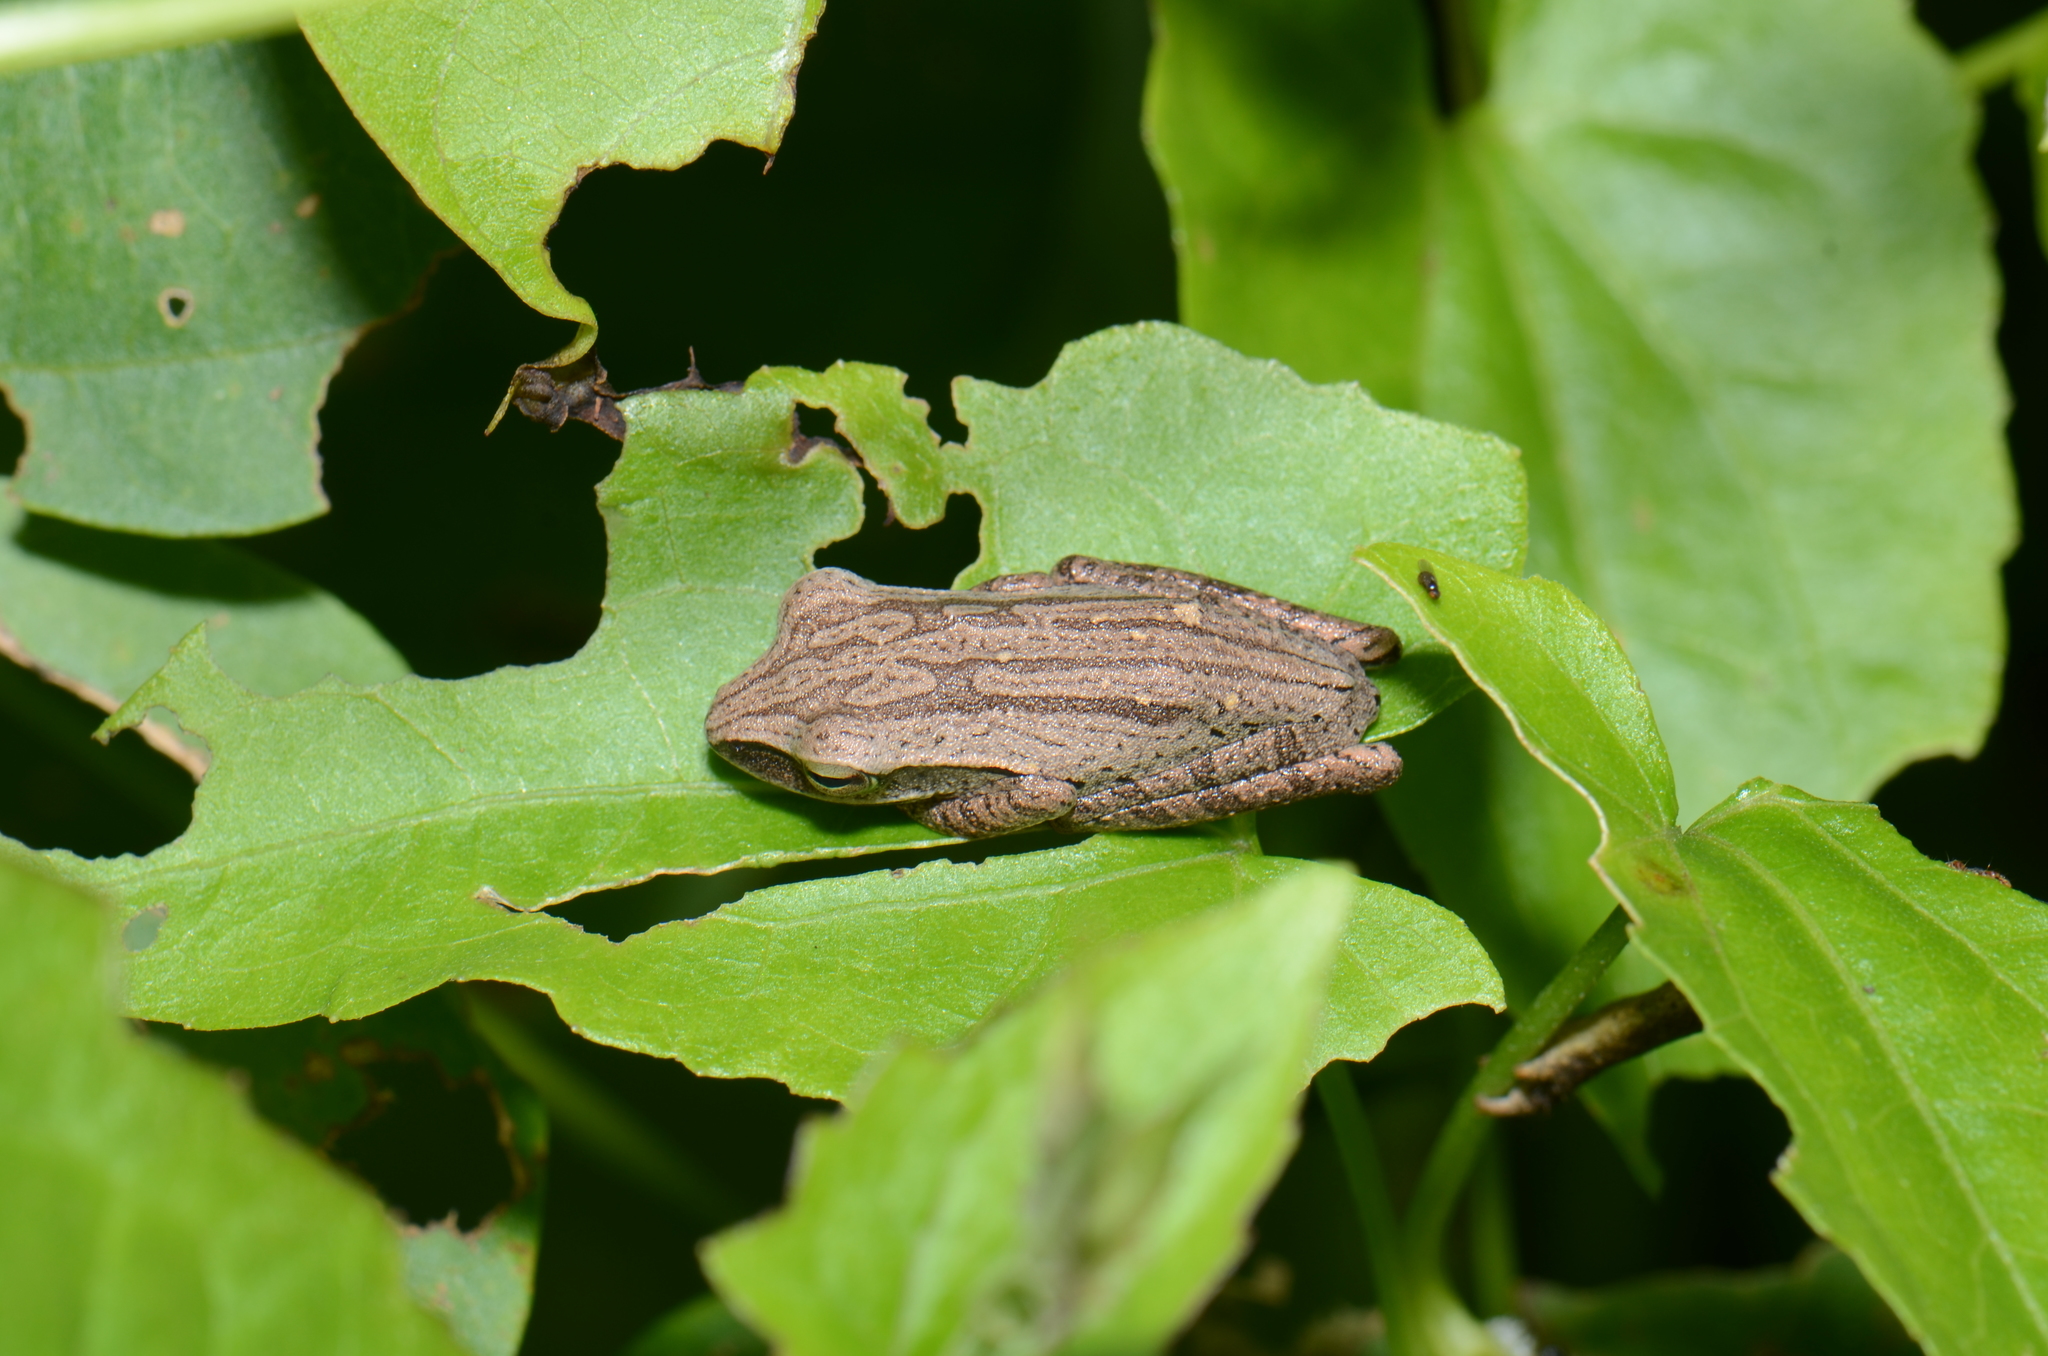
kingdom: Animalia
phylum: Chordata
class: Amphibia
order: Anura
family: Rhacophoridae
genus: Polypedates
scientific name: Polypedates leucomystax
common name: Common tree frog/four-lined tree frog
